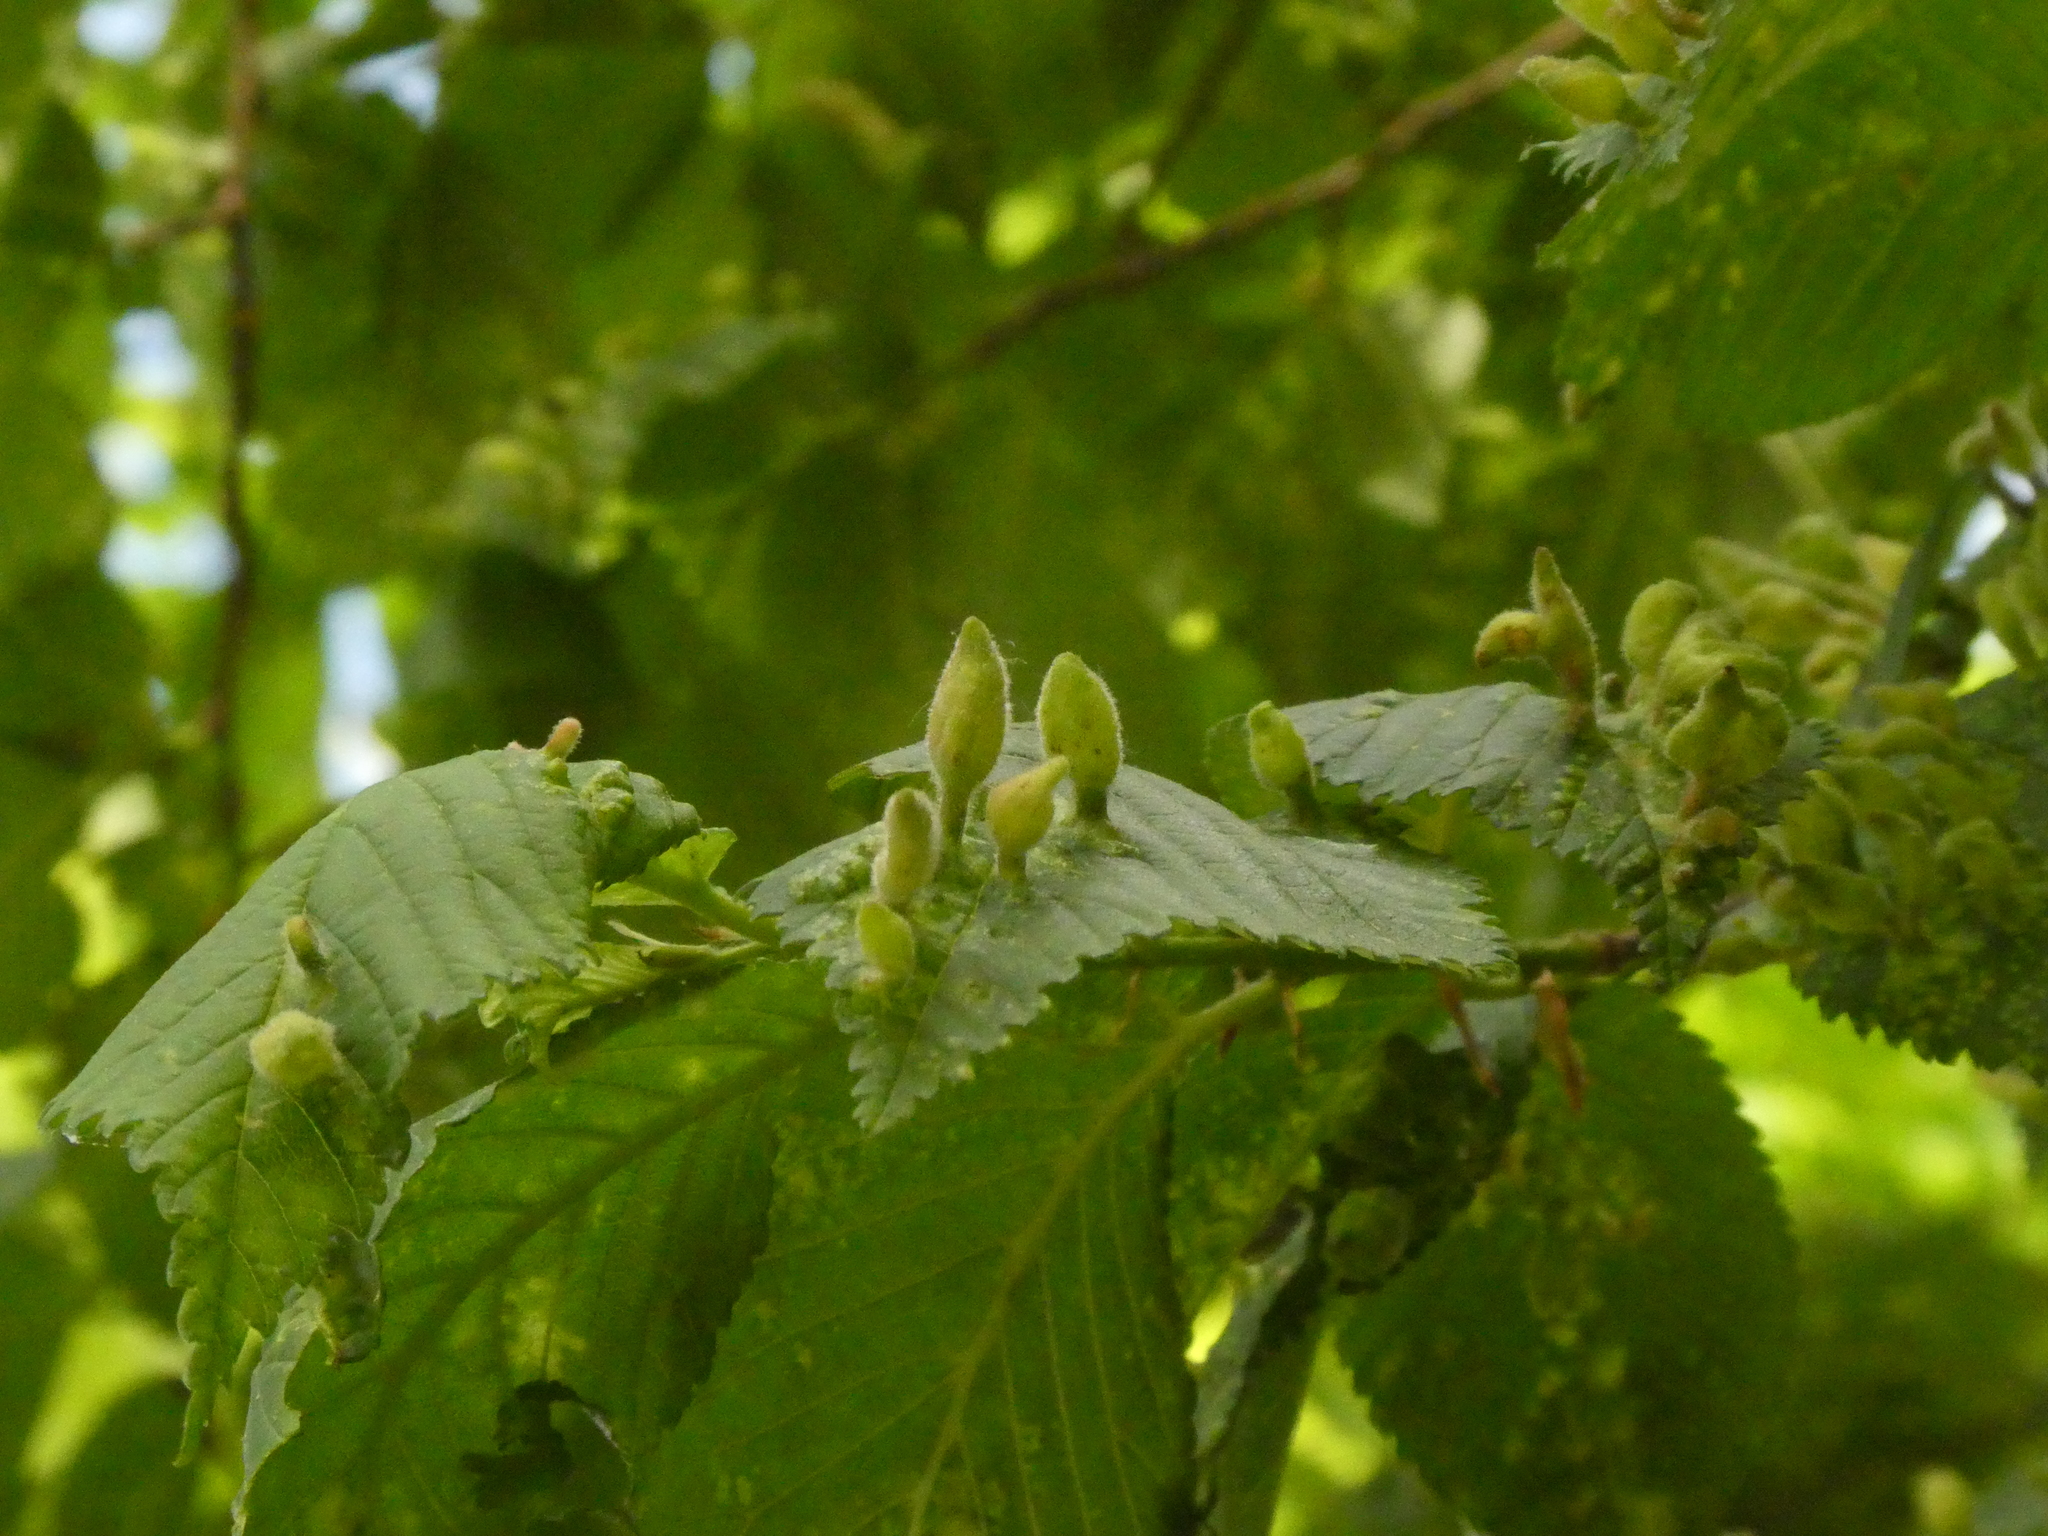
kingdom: Animalia
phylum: Arthropoda
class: Insecta
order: Hemiptera
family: Aphididae
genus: Tetraneura
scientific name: Tetraneura nigriabdominalis
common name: Aphid
